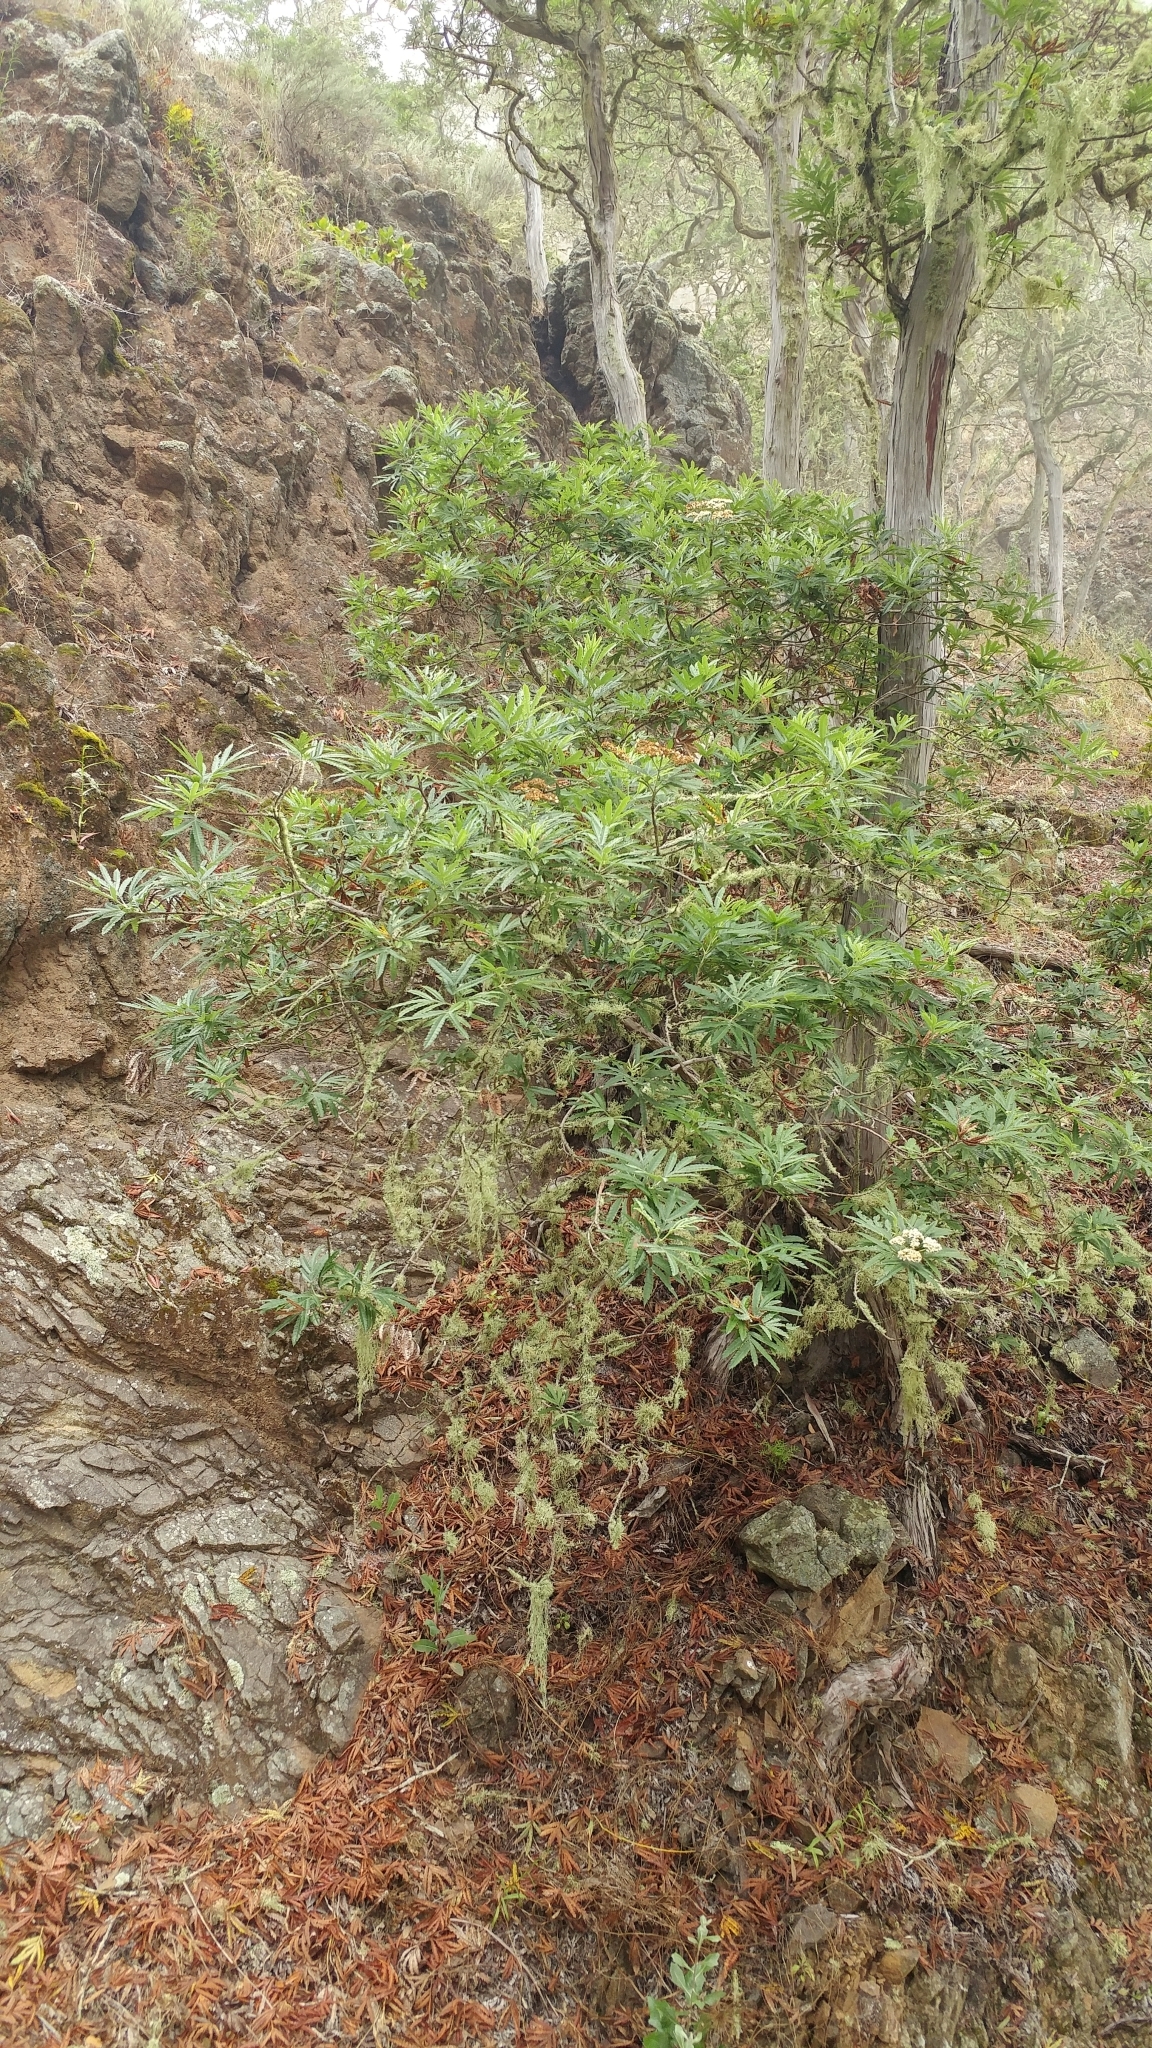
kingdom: Plantae
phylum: Tracheophyta
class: Magnoliopsida
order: Rosales
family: Rosaceae
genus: Lyonothamnus
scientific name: Lyonothamnus floribundus
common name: Catalina ironwood
